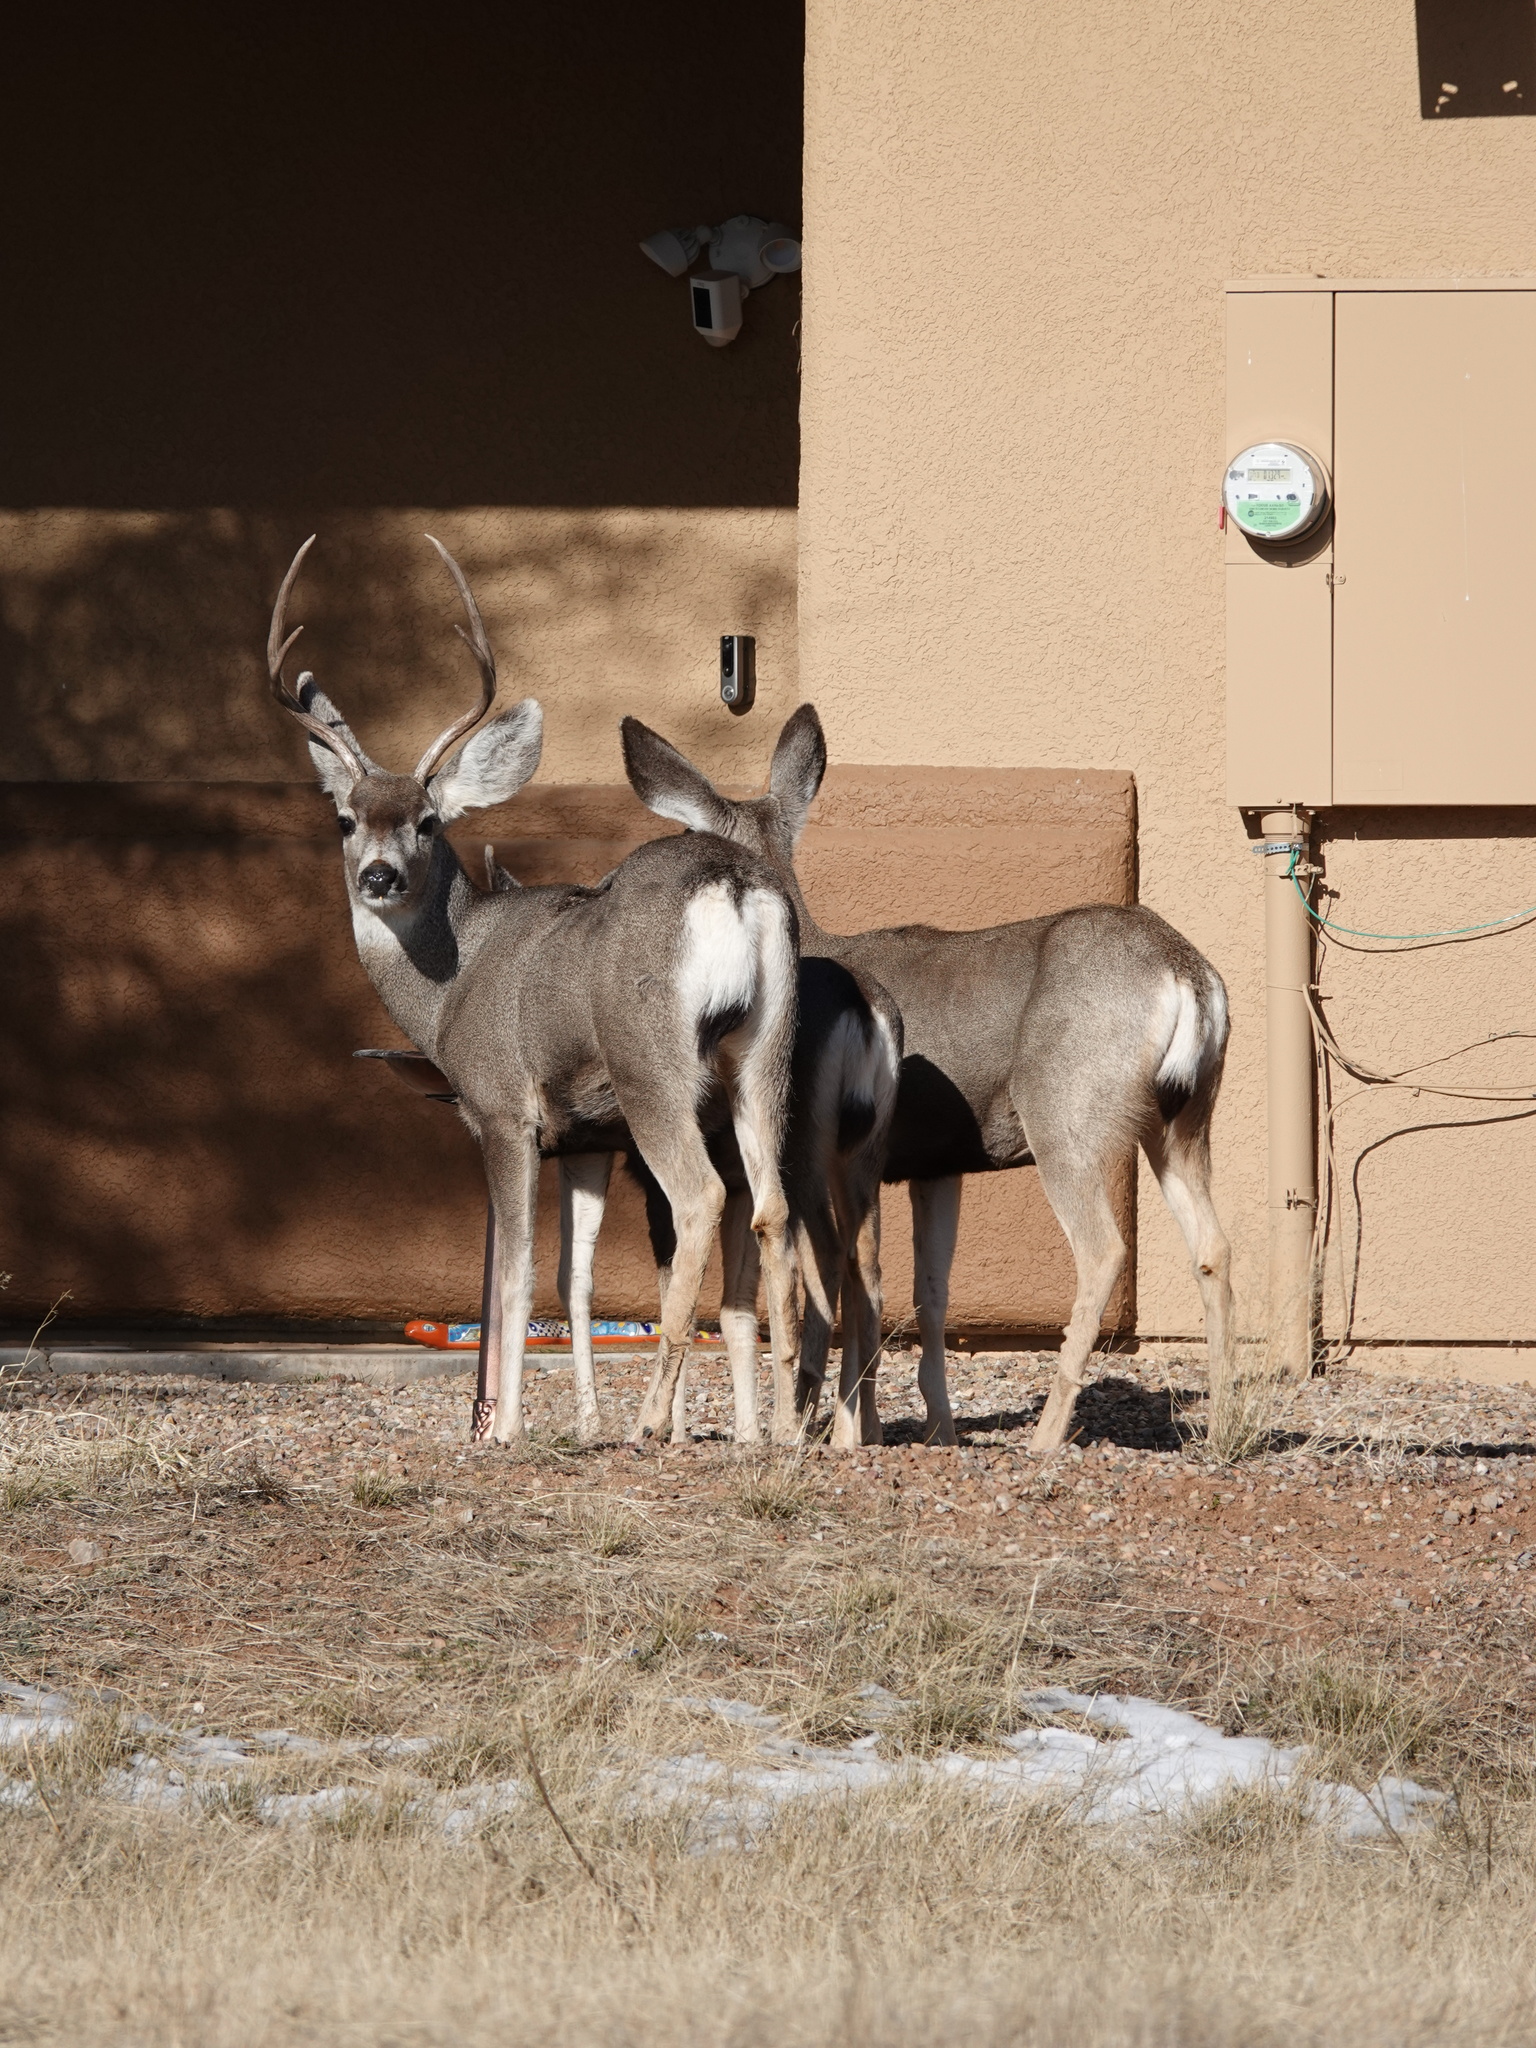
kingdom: Animalia
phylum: Chordata
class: Mammalia
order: Artiodactyla
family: Cervidae
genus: Odocoileus
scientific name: Odocoileus hemionus
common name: Mule deer
